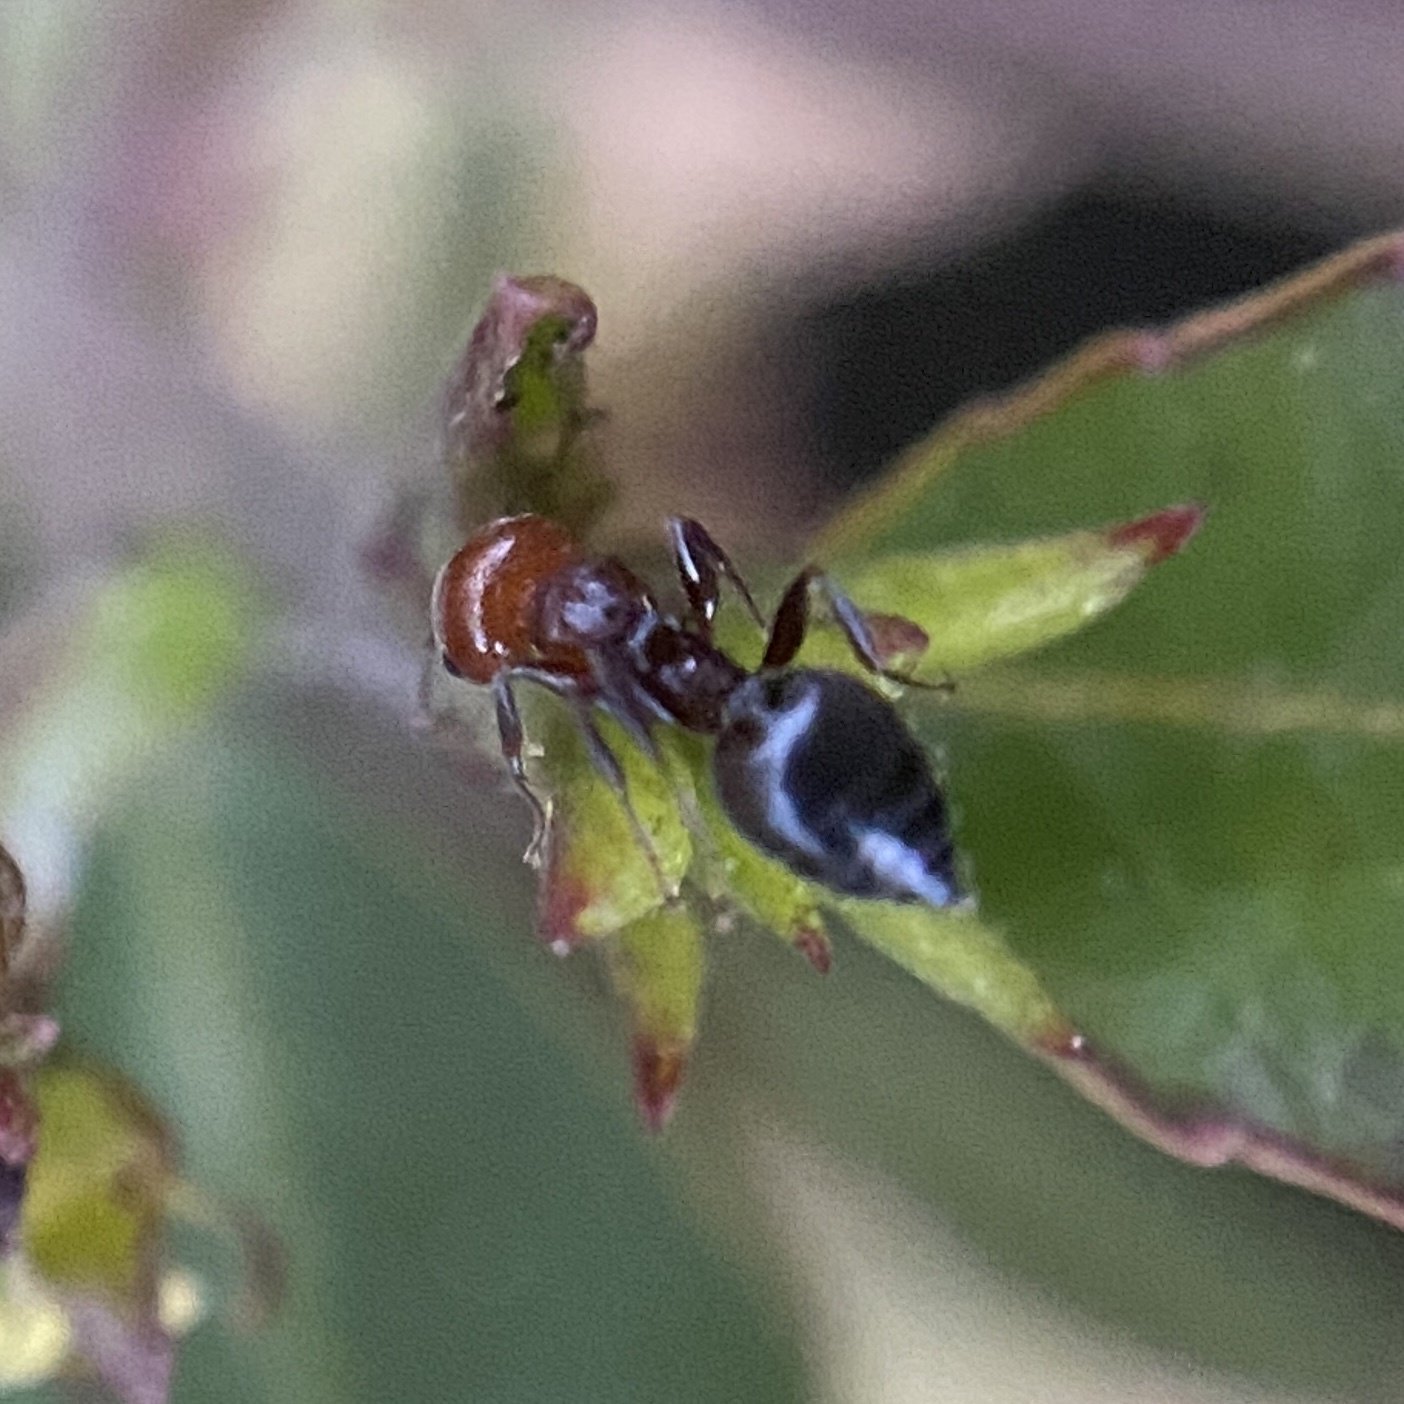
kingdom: Animalia
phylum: Arthropoda
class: Insecta
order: Hymenoptera
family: Formicidae
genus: Crematogaster
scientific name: Crematogaster scutellaris
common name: Fourmi du liège
